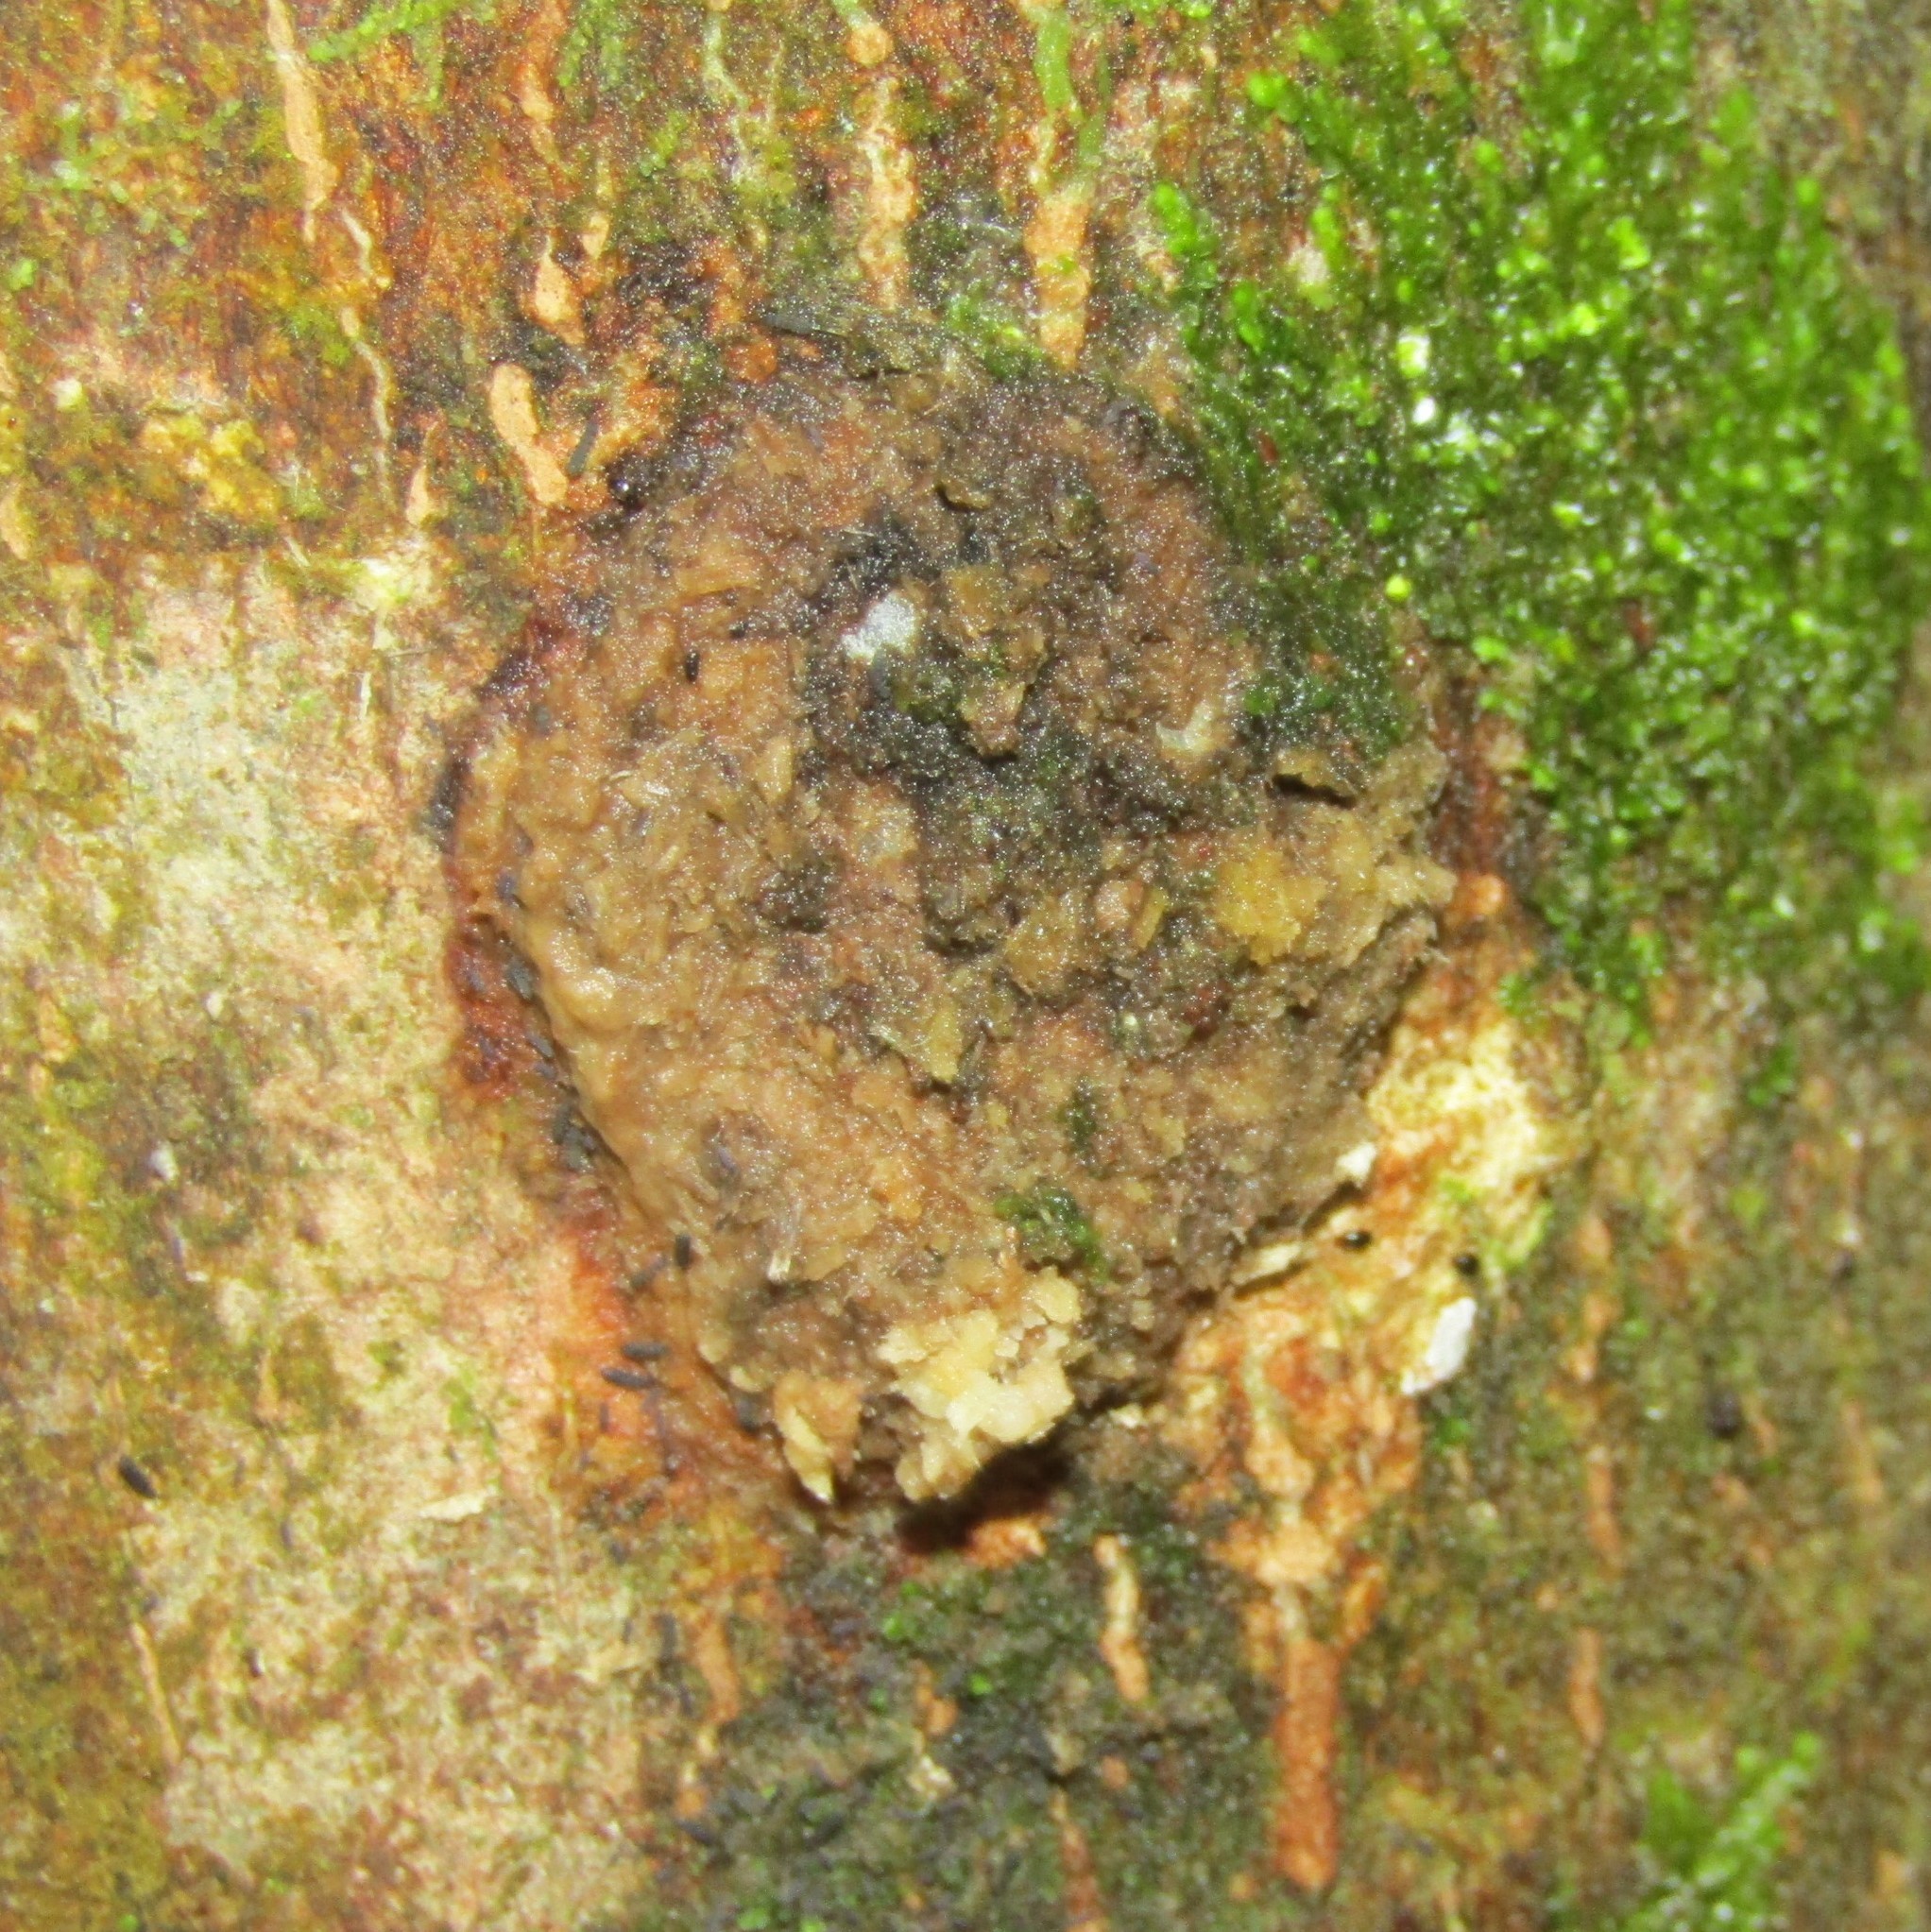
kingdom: Animalia
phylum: Arthropoda
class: Insecta
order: Lepidoptera
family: Hepialidae
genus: Aenetus
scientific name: Aenetus virescens
